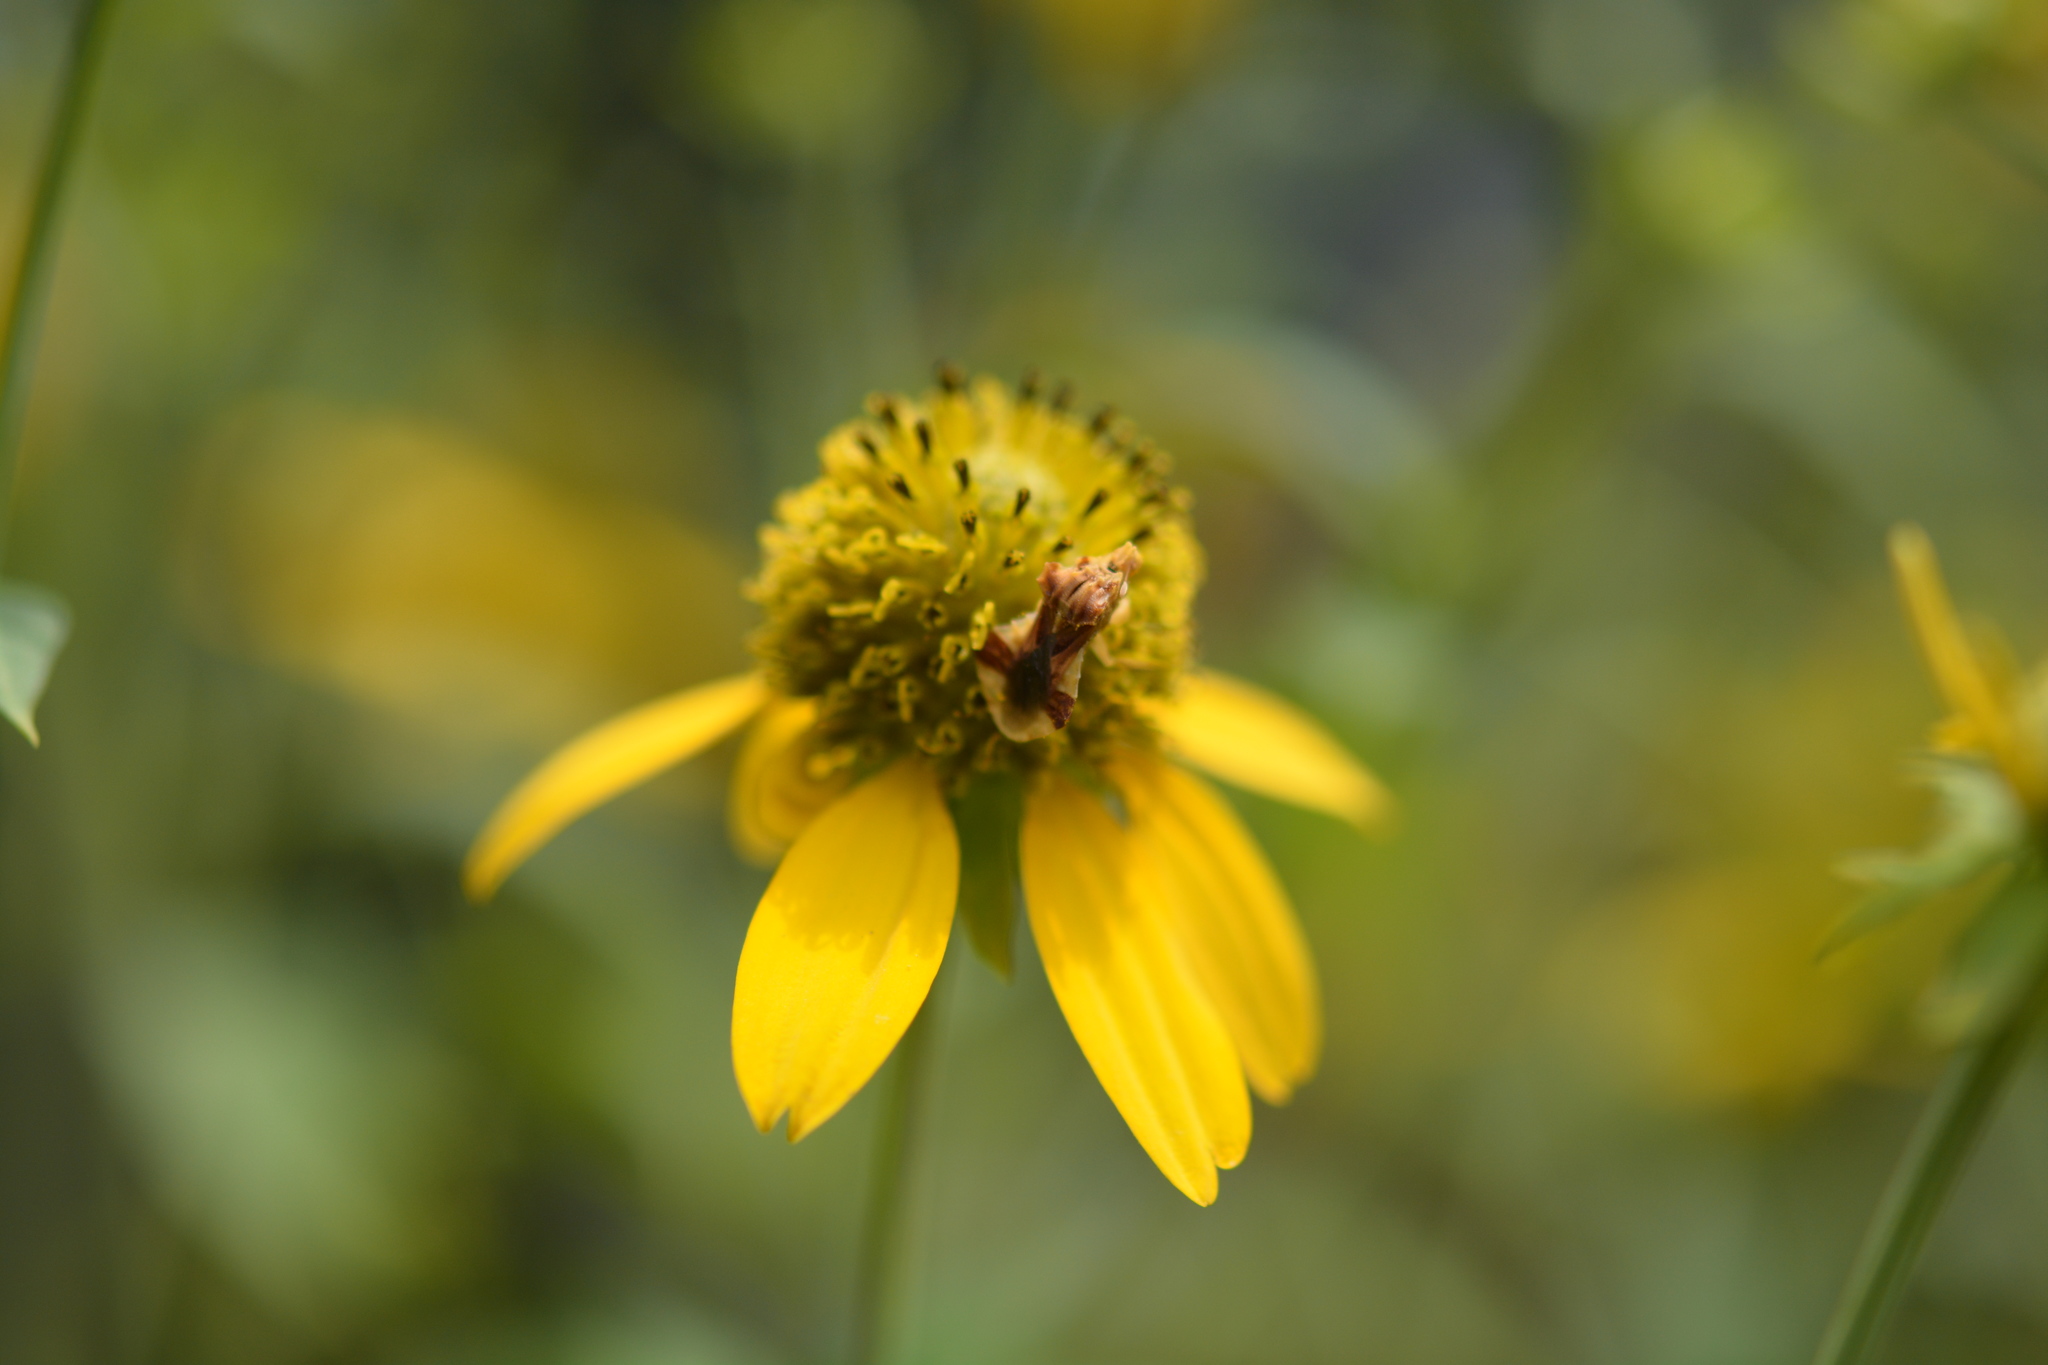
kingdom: Animalia
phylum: Arthropoda
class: Insecta
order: Hemiptera
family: Reduviidae
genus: Phymata
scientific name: Phymata fasciata
